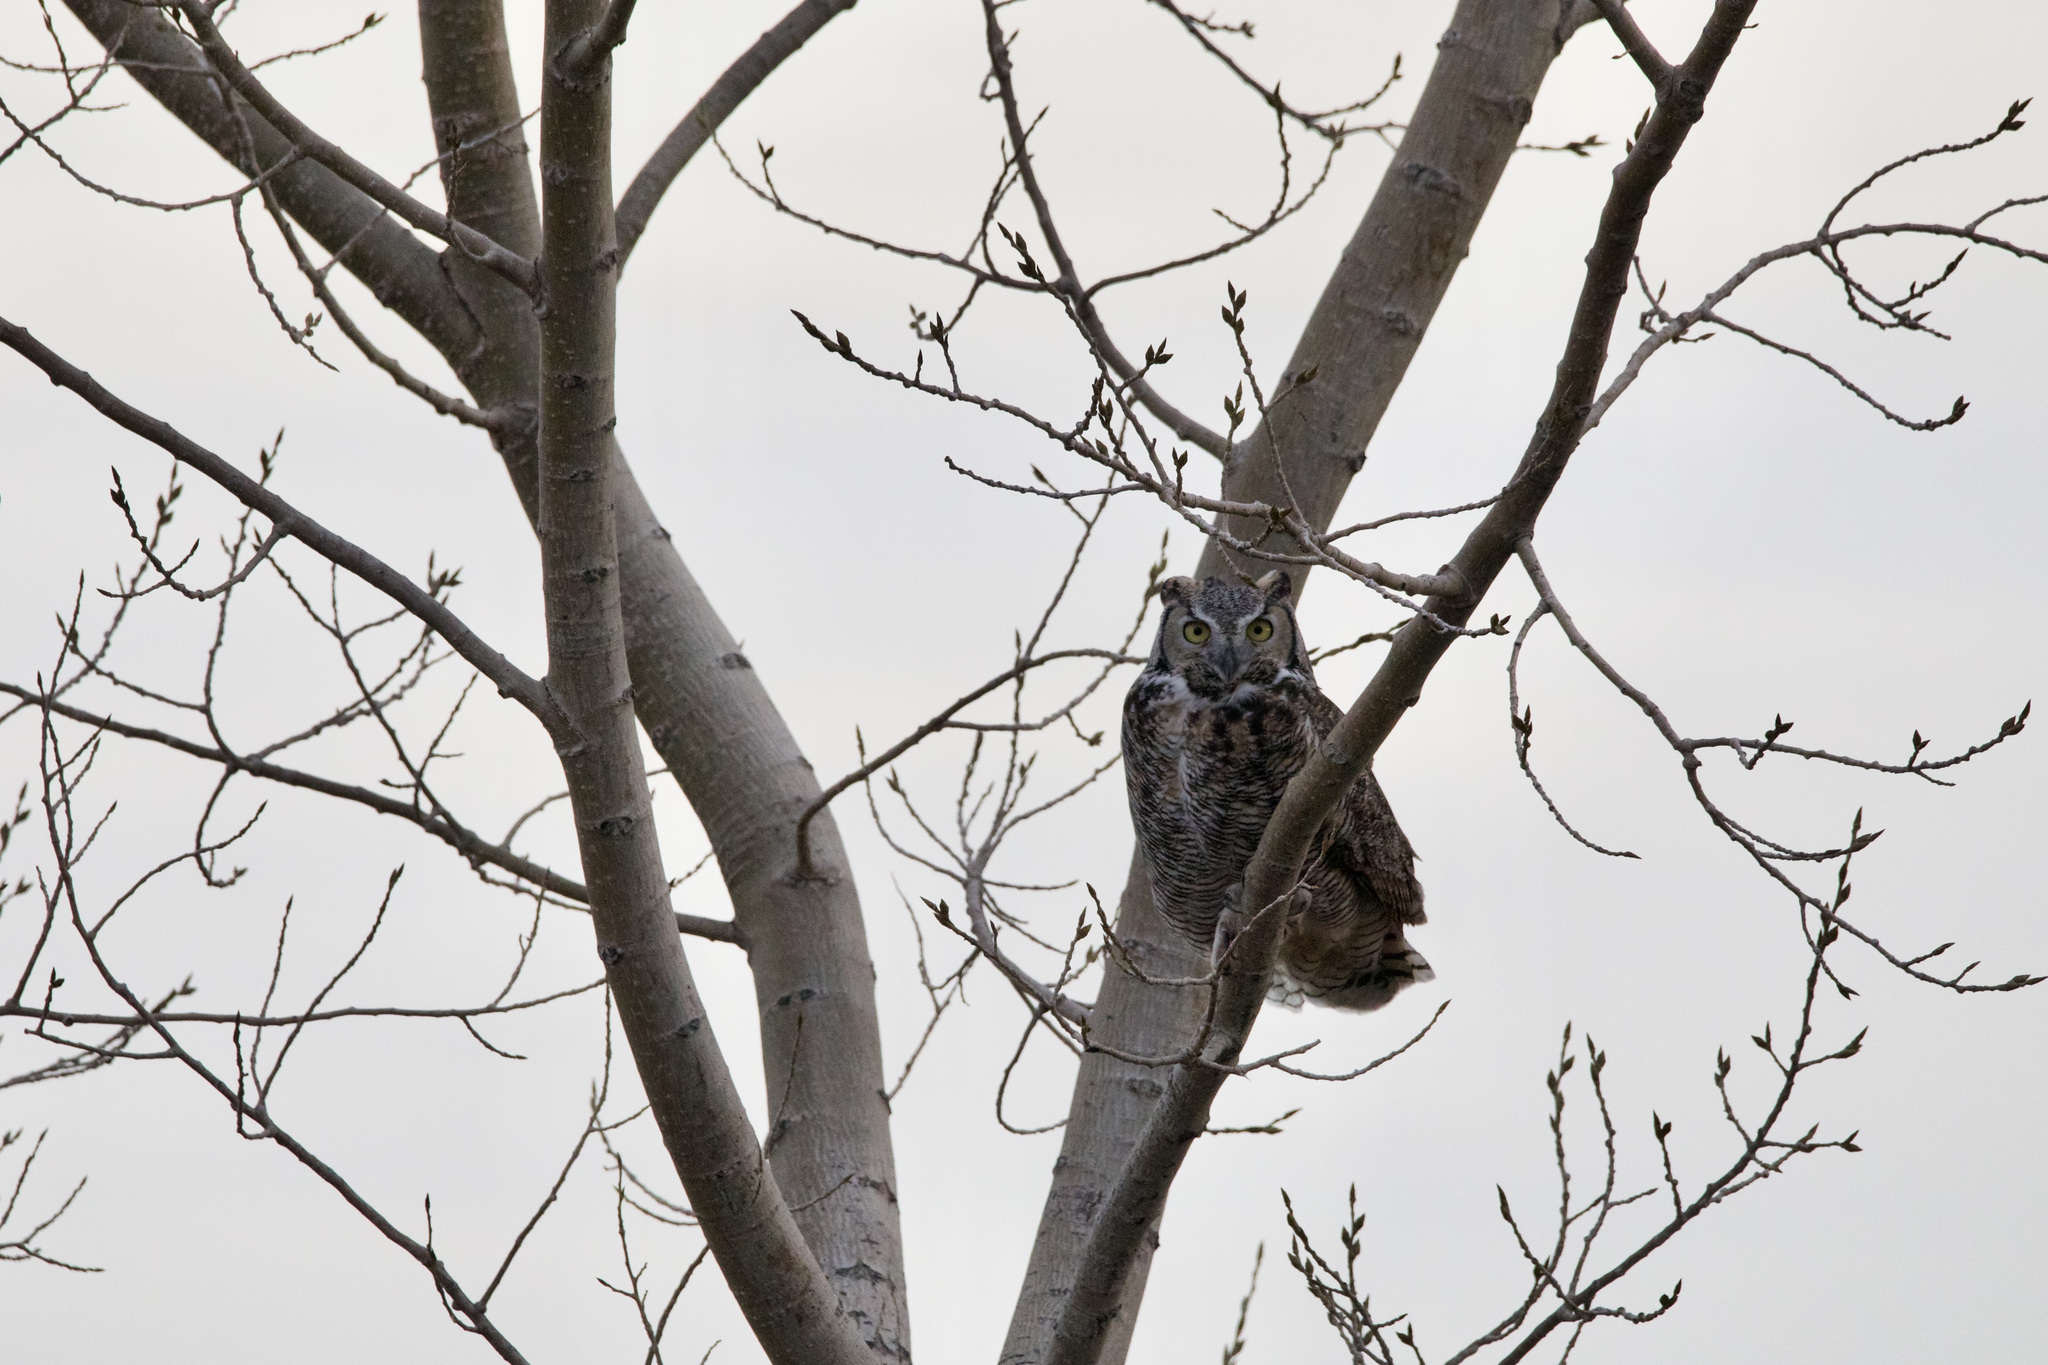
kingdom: Animalia
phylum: Chordata
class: Aves
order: Strigiformes
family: Strigidae
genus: Bubo
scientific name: Bubo virginianus
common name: Great horned owl
